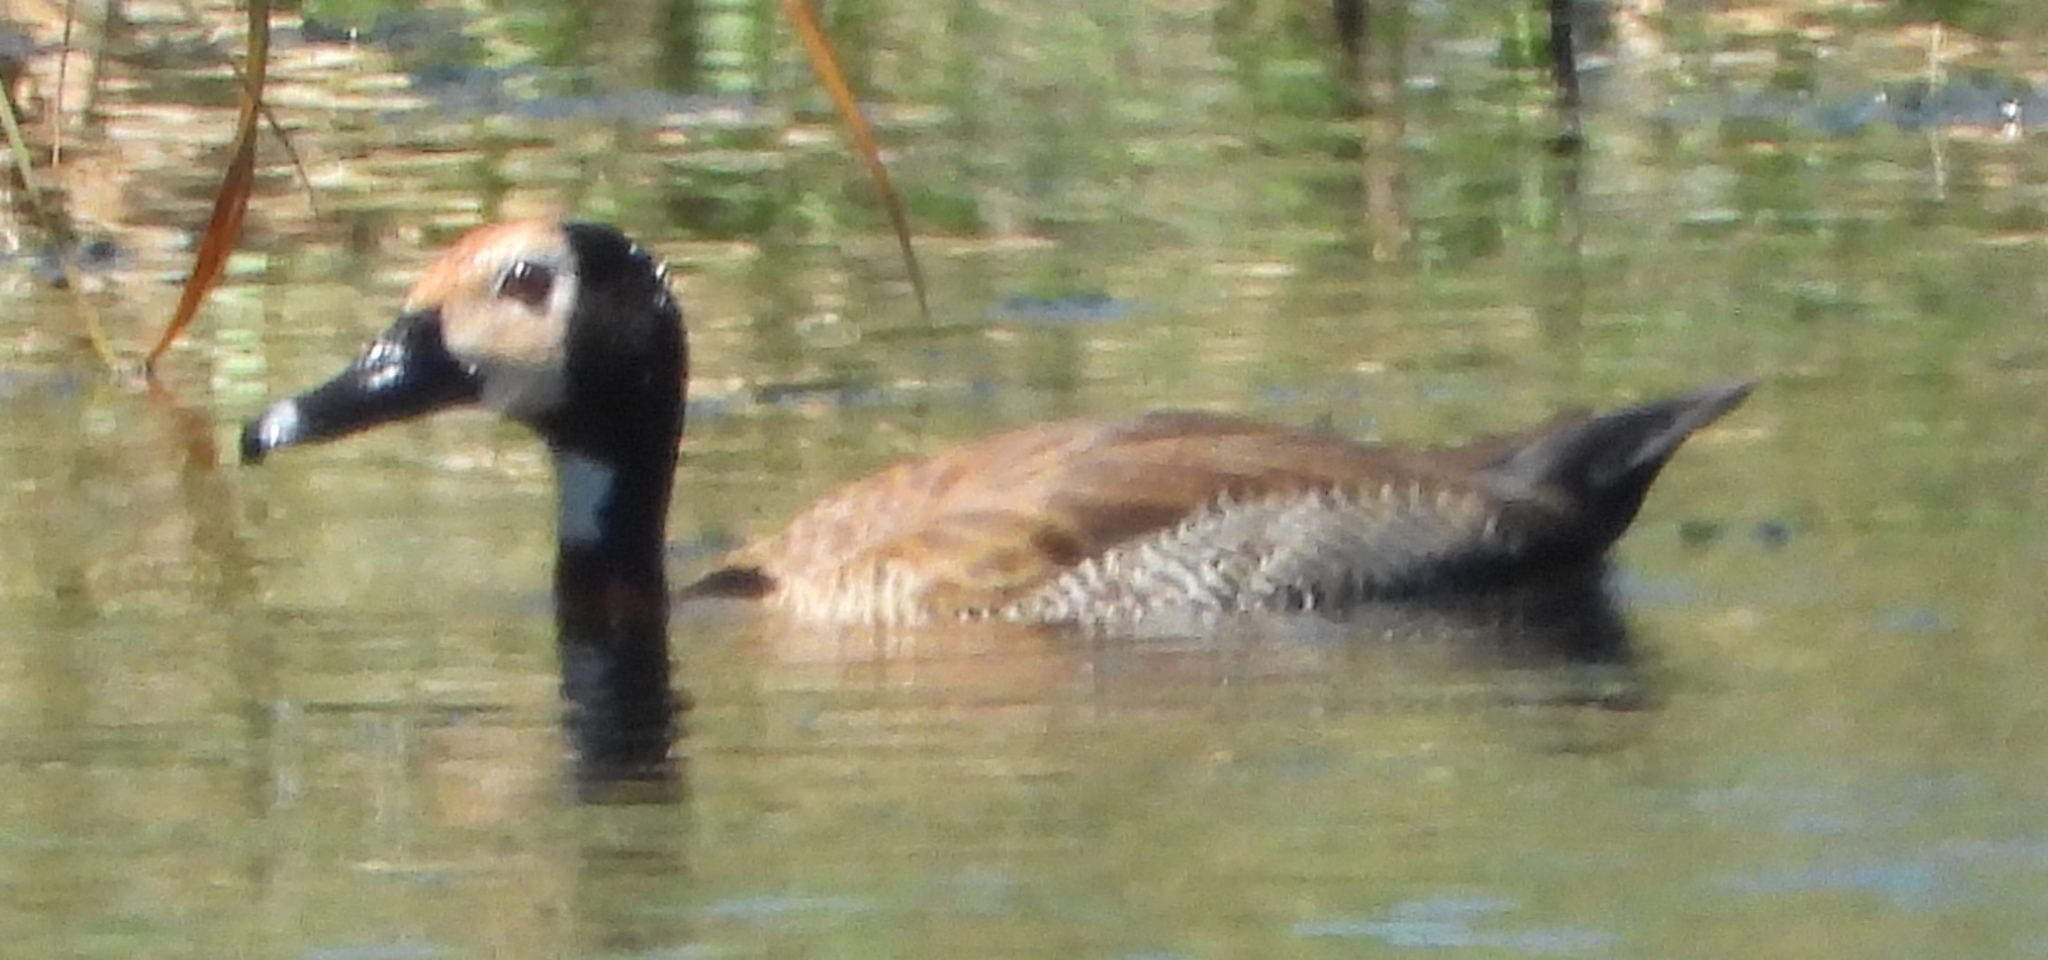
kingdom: Animalia
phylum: Chordata
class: Aves
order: Anseriformes
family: Anatidae
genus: Dendrocygna
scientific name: Dendrocygna viduata
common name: White-faced whistling duck
